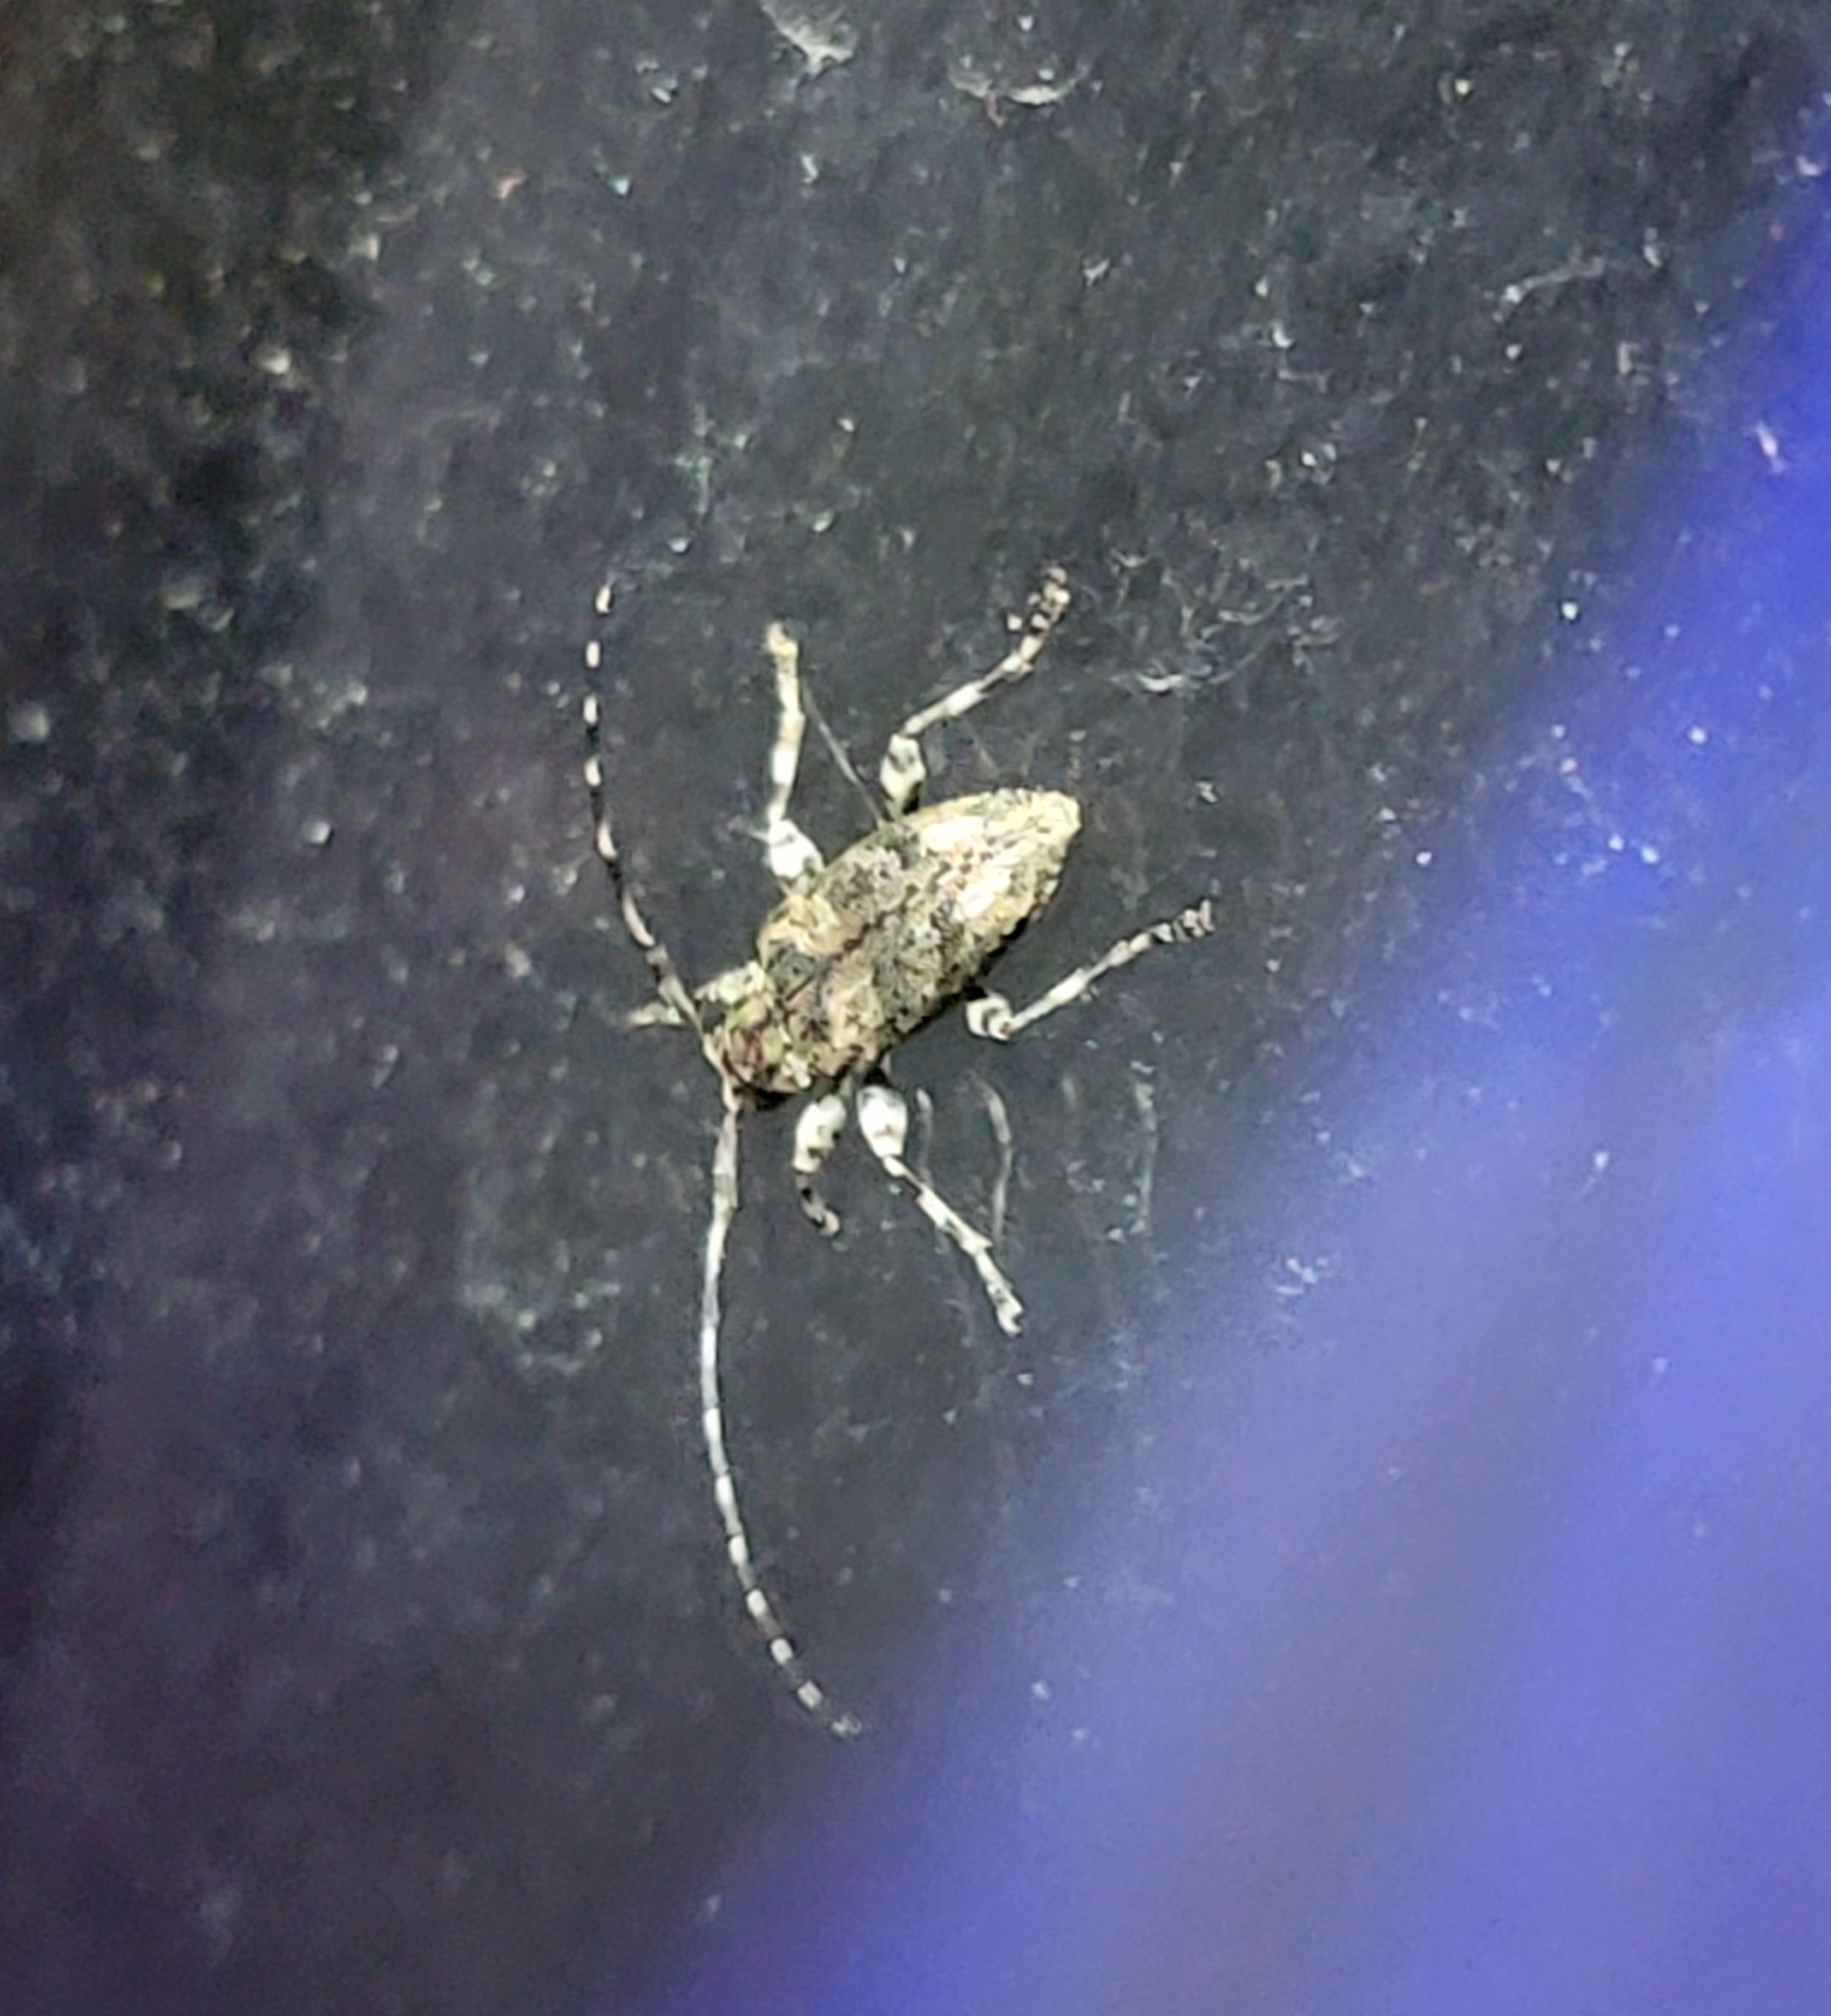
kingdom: Animalia
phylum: Arthropoda
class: Insecta
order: Coleoptera
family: Cerambycidae
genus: Astyleiopus
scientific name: Astyleiopus variegatus
